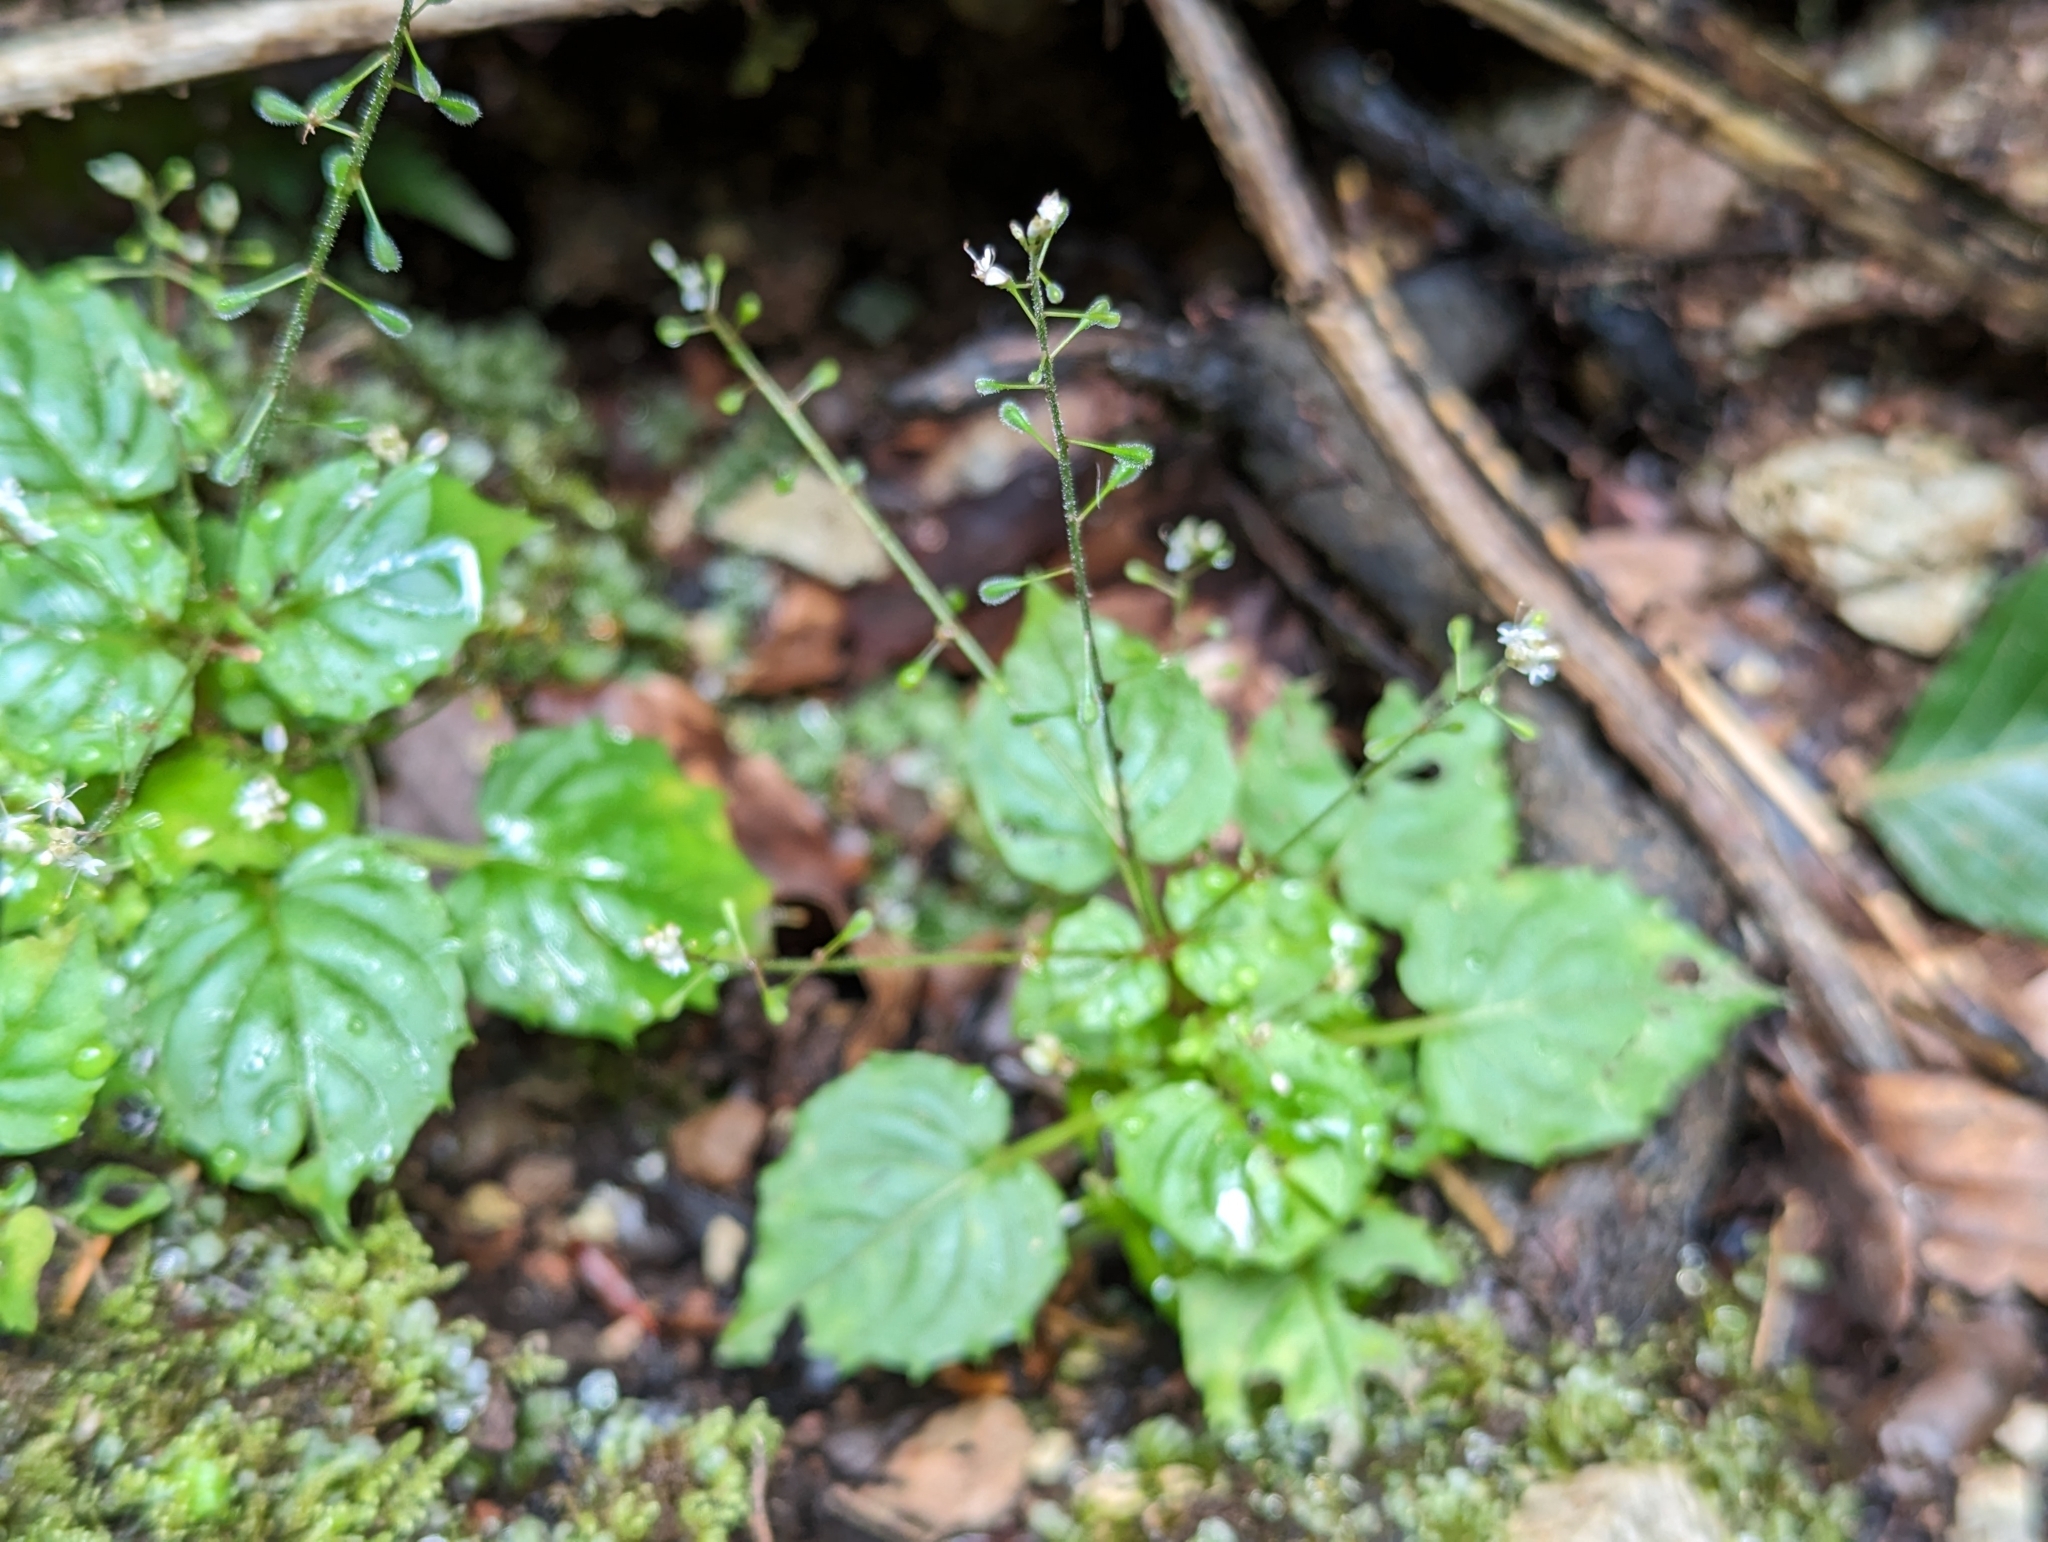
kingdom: Plantae
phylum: Tracheophyta
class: Magnoliopsida
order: Myrtales
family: Onagraceae
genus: Circaea
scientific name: Circaea alpina
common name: Alpine enchanter's-nightshade
